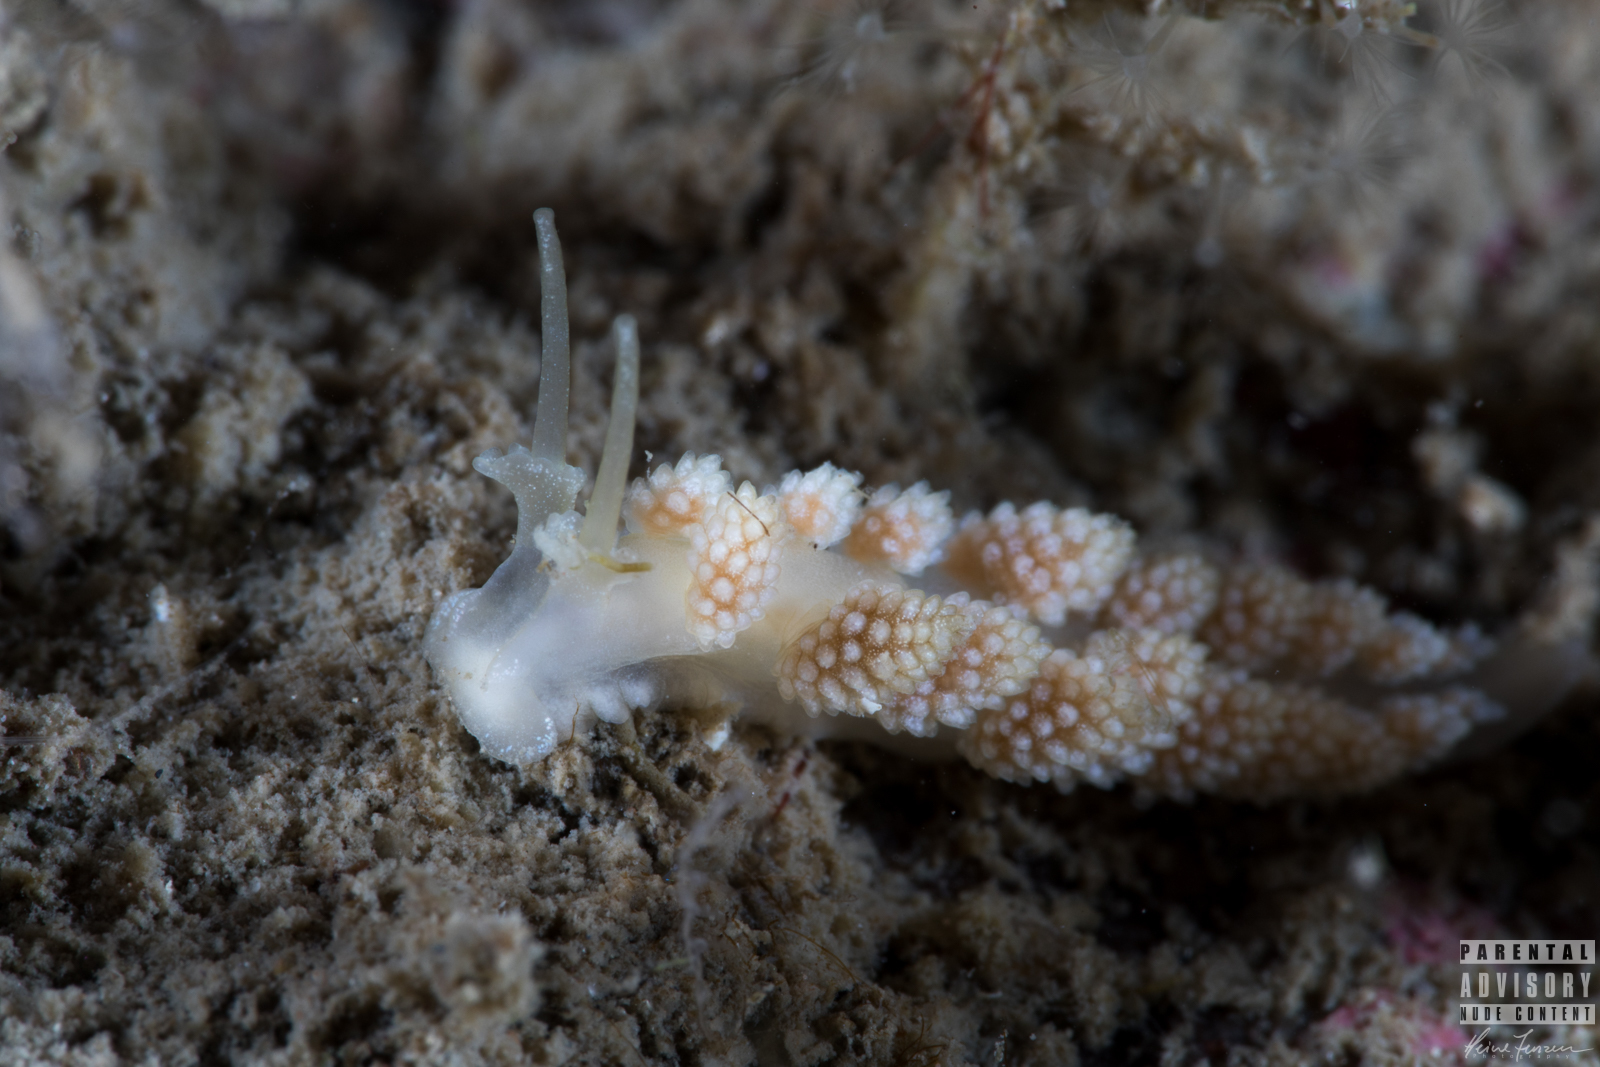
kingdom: Animalia
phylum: Mollusca
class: Gastropoda
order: Nudibranchia
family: Dotidae
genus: Doto
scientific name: Doto fragilis
